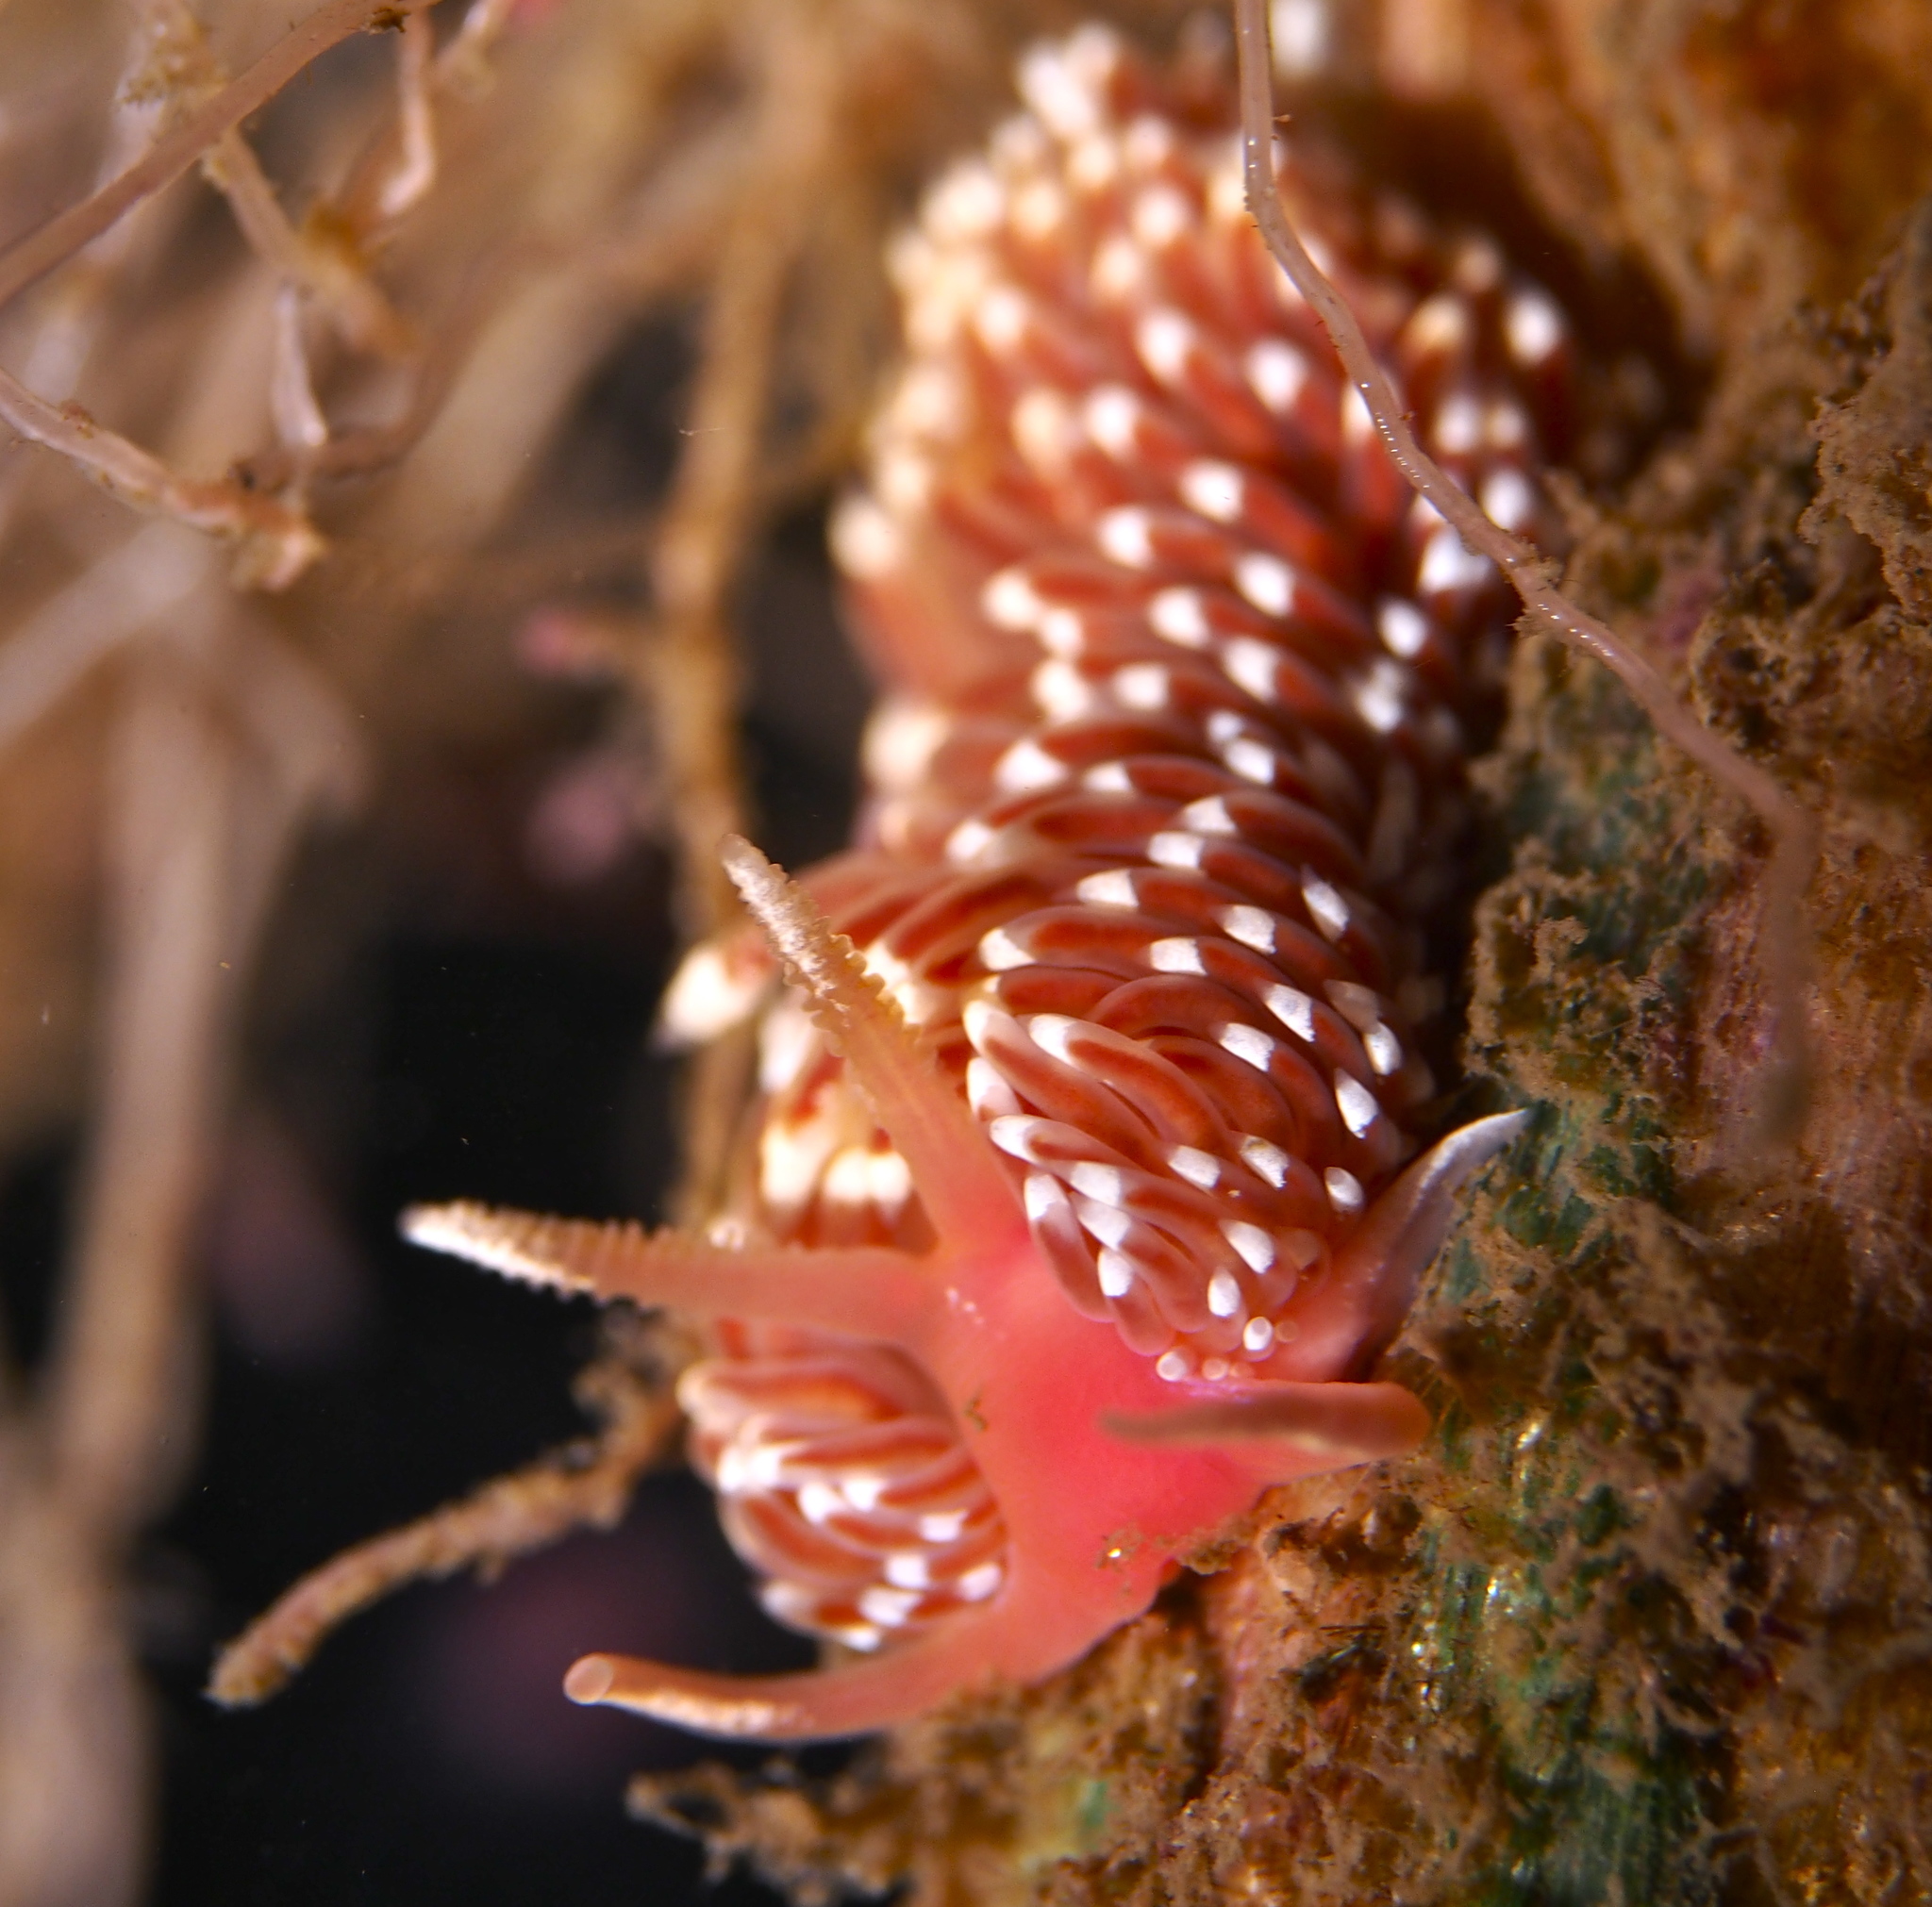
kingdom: Animalia
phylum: Mollusca
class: Gastropoda
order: Nudibranchia
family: Facelinidae
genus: Facelina
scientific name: Facelina bostoniensis
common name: Boston facelina
